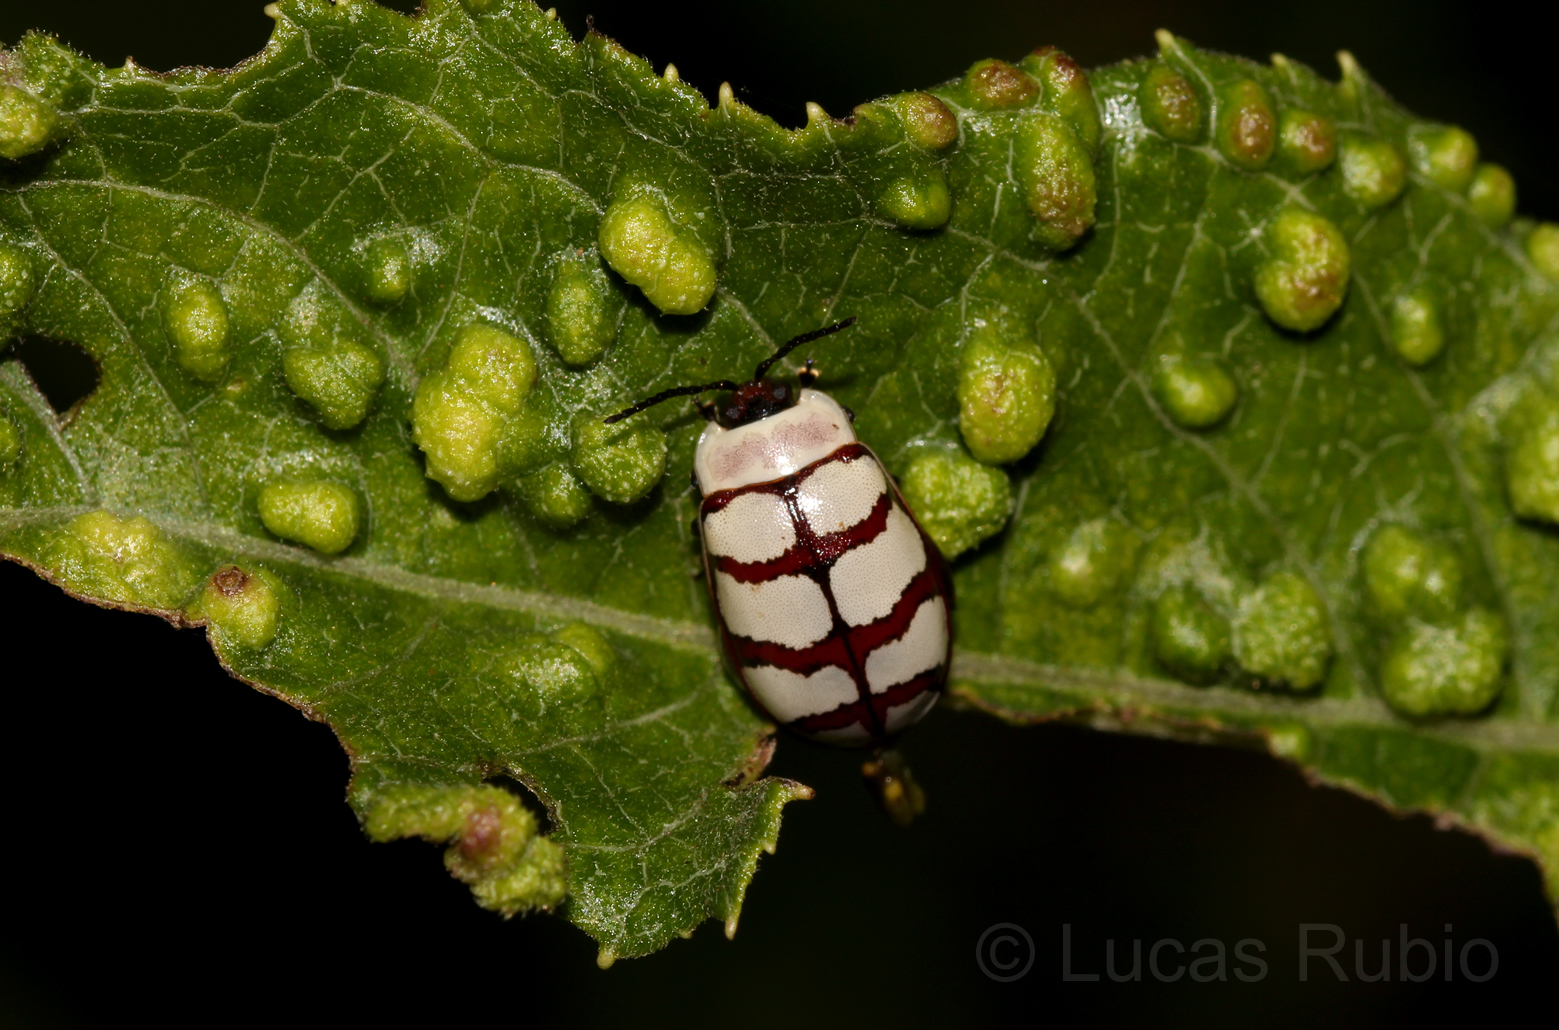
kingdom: Animalia
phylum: Arthropoda
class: Insecta
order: Coleoptera
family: Chrysomelidae
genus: Alagoasa
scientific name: Alagoasa decemguttata
